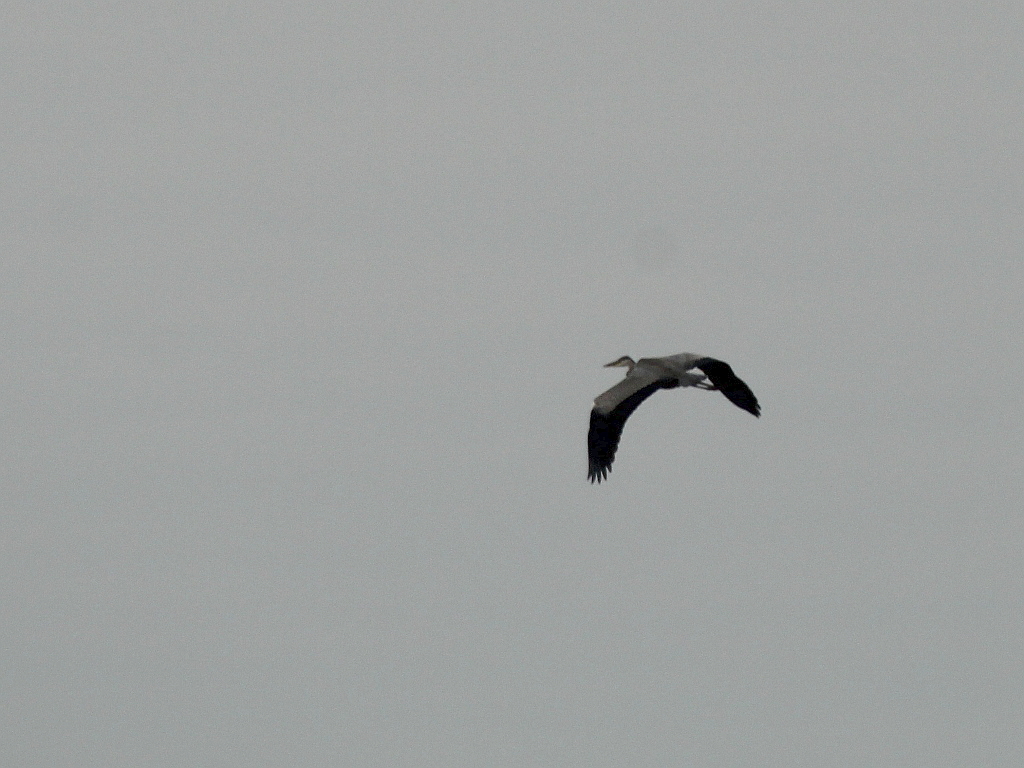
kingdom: Animalia
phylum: Chordata
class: Aves
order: Pelecaniformes
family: Ardeidae
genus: Ardea
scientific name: Ardea cinerea
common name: Grey heron
